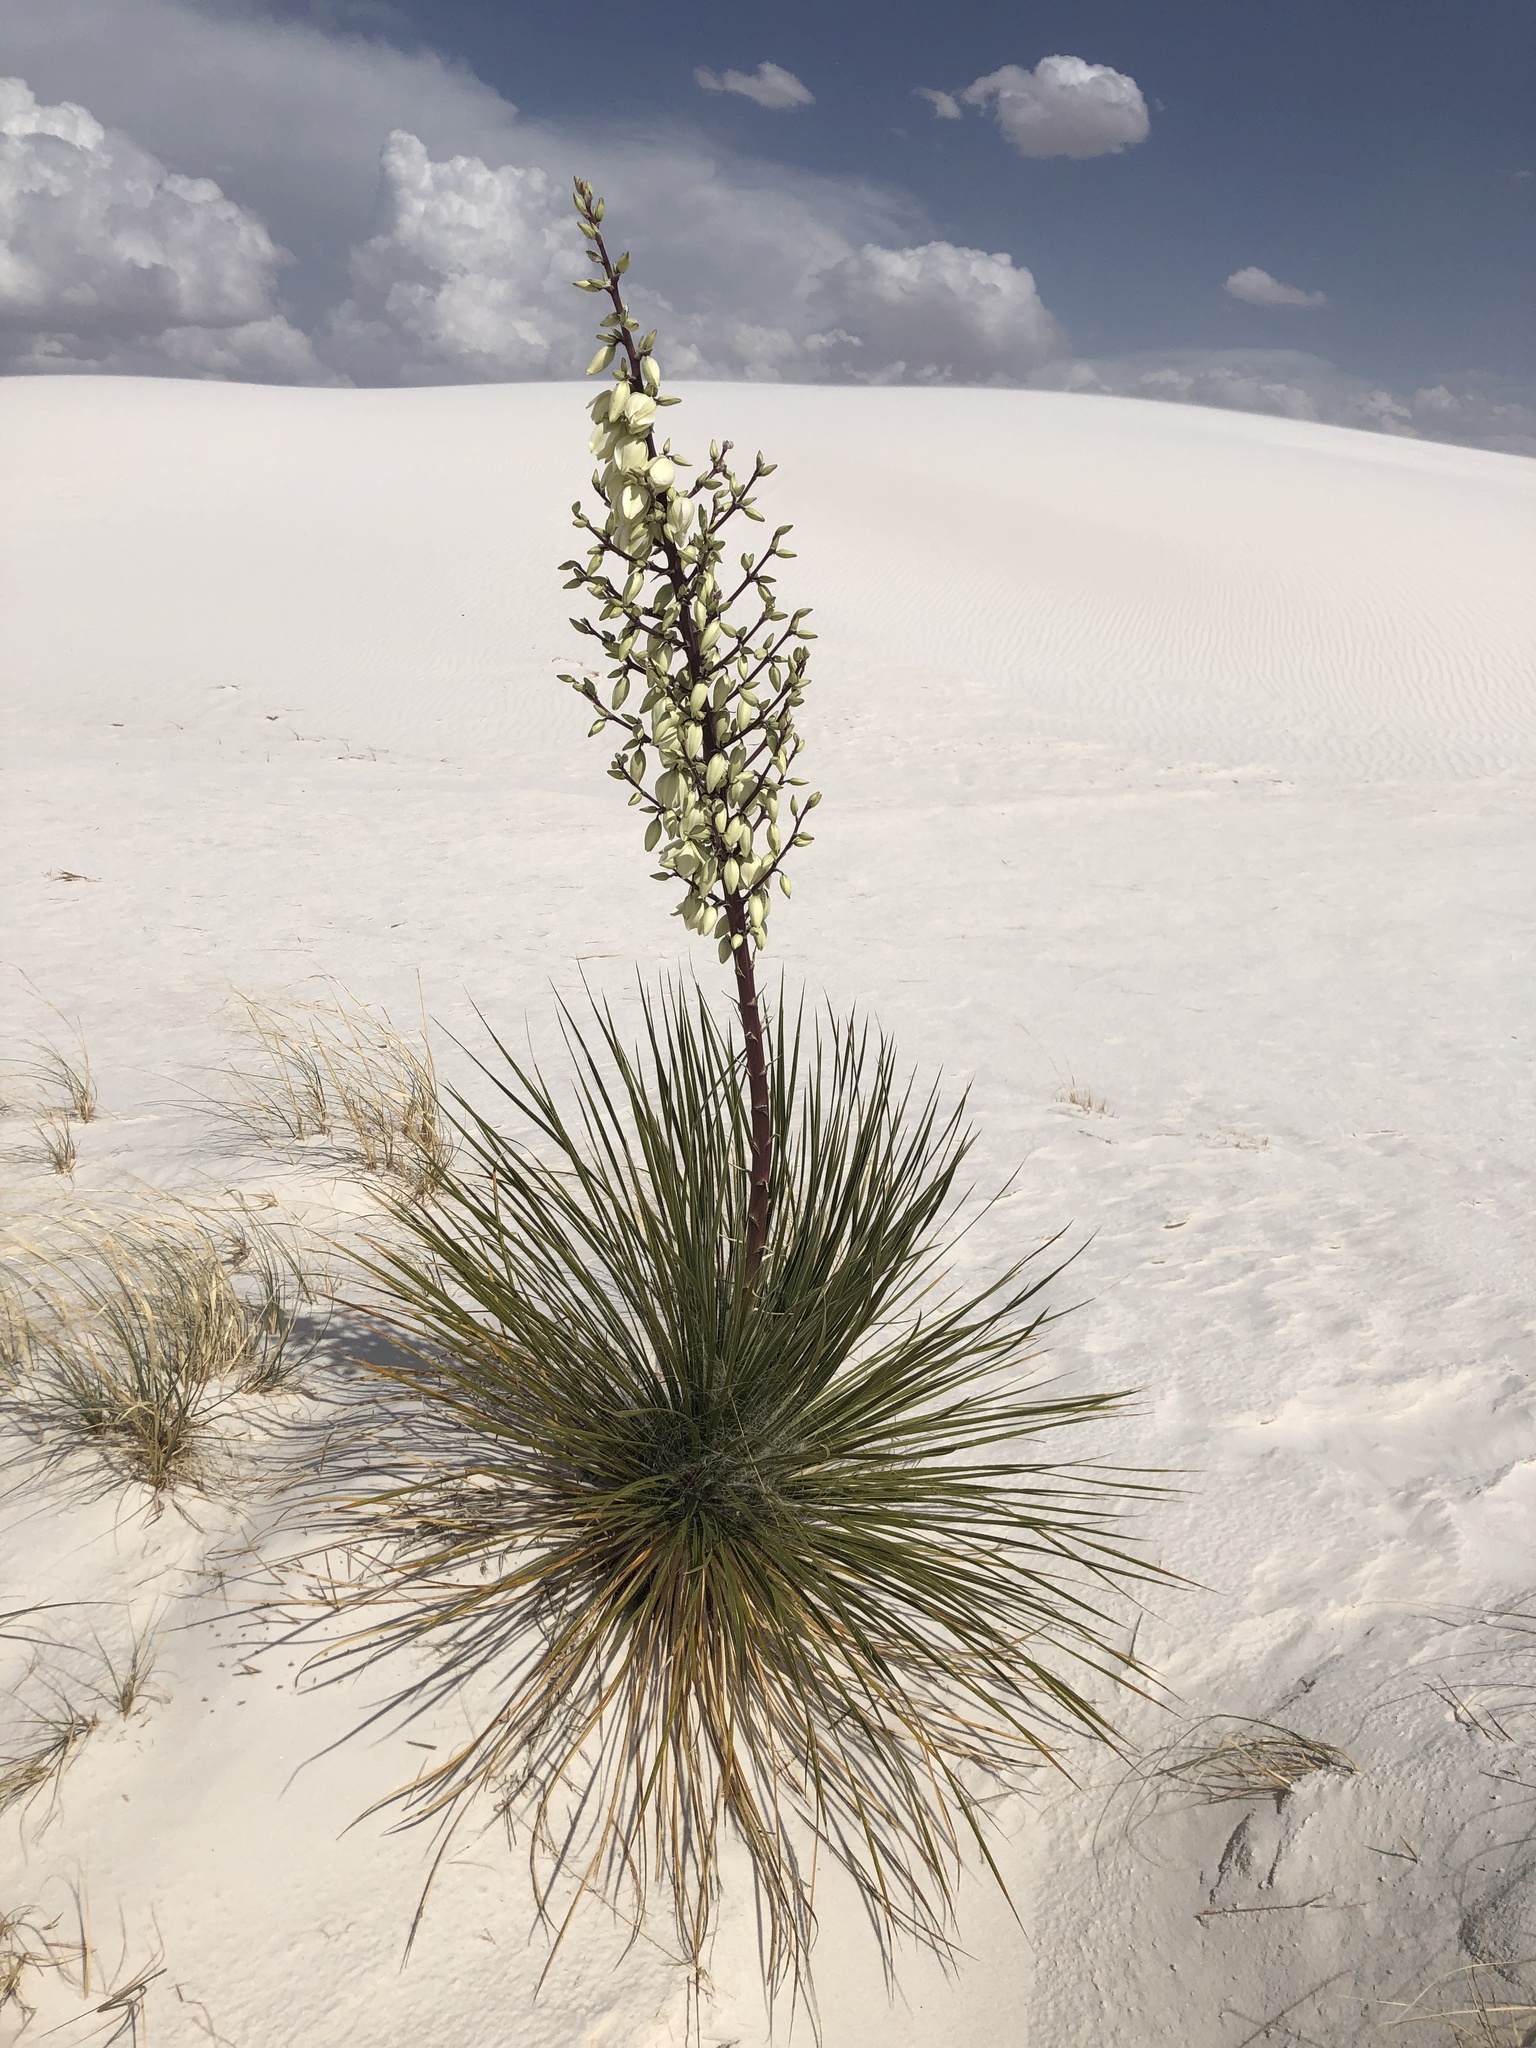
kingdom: Plantae
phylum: Tracheophyta
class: Liliopsida
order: Asparagales
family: Asparagaceae
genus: Yucca
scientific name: Yucca elata
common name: Palmella
